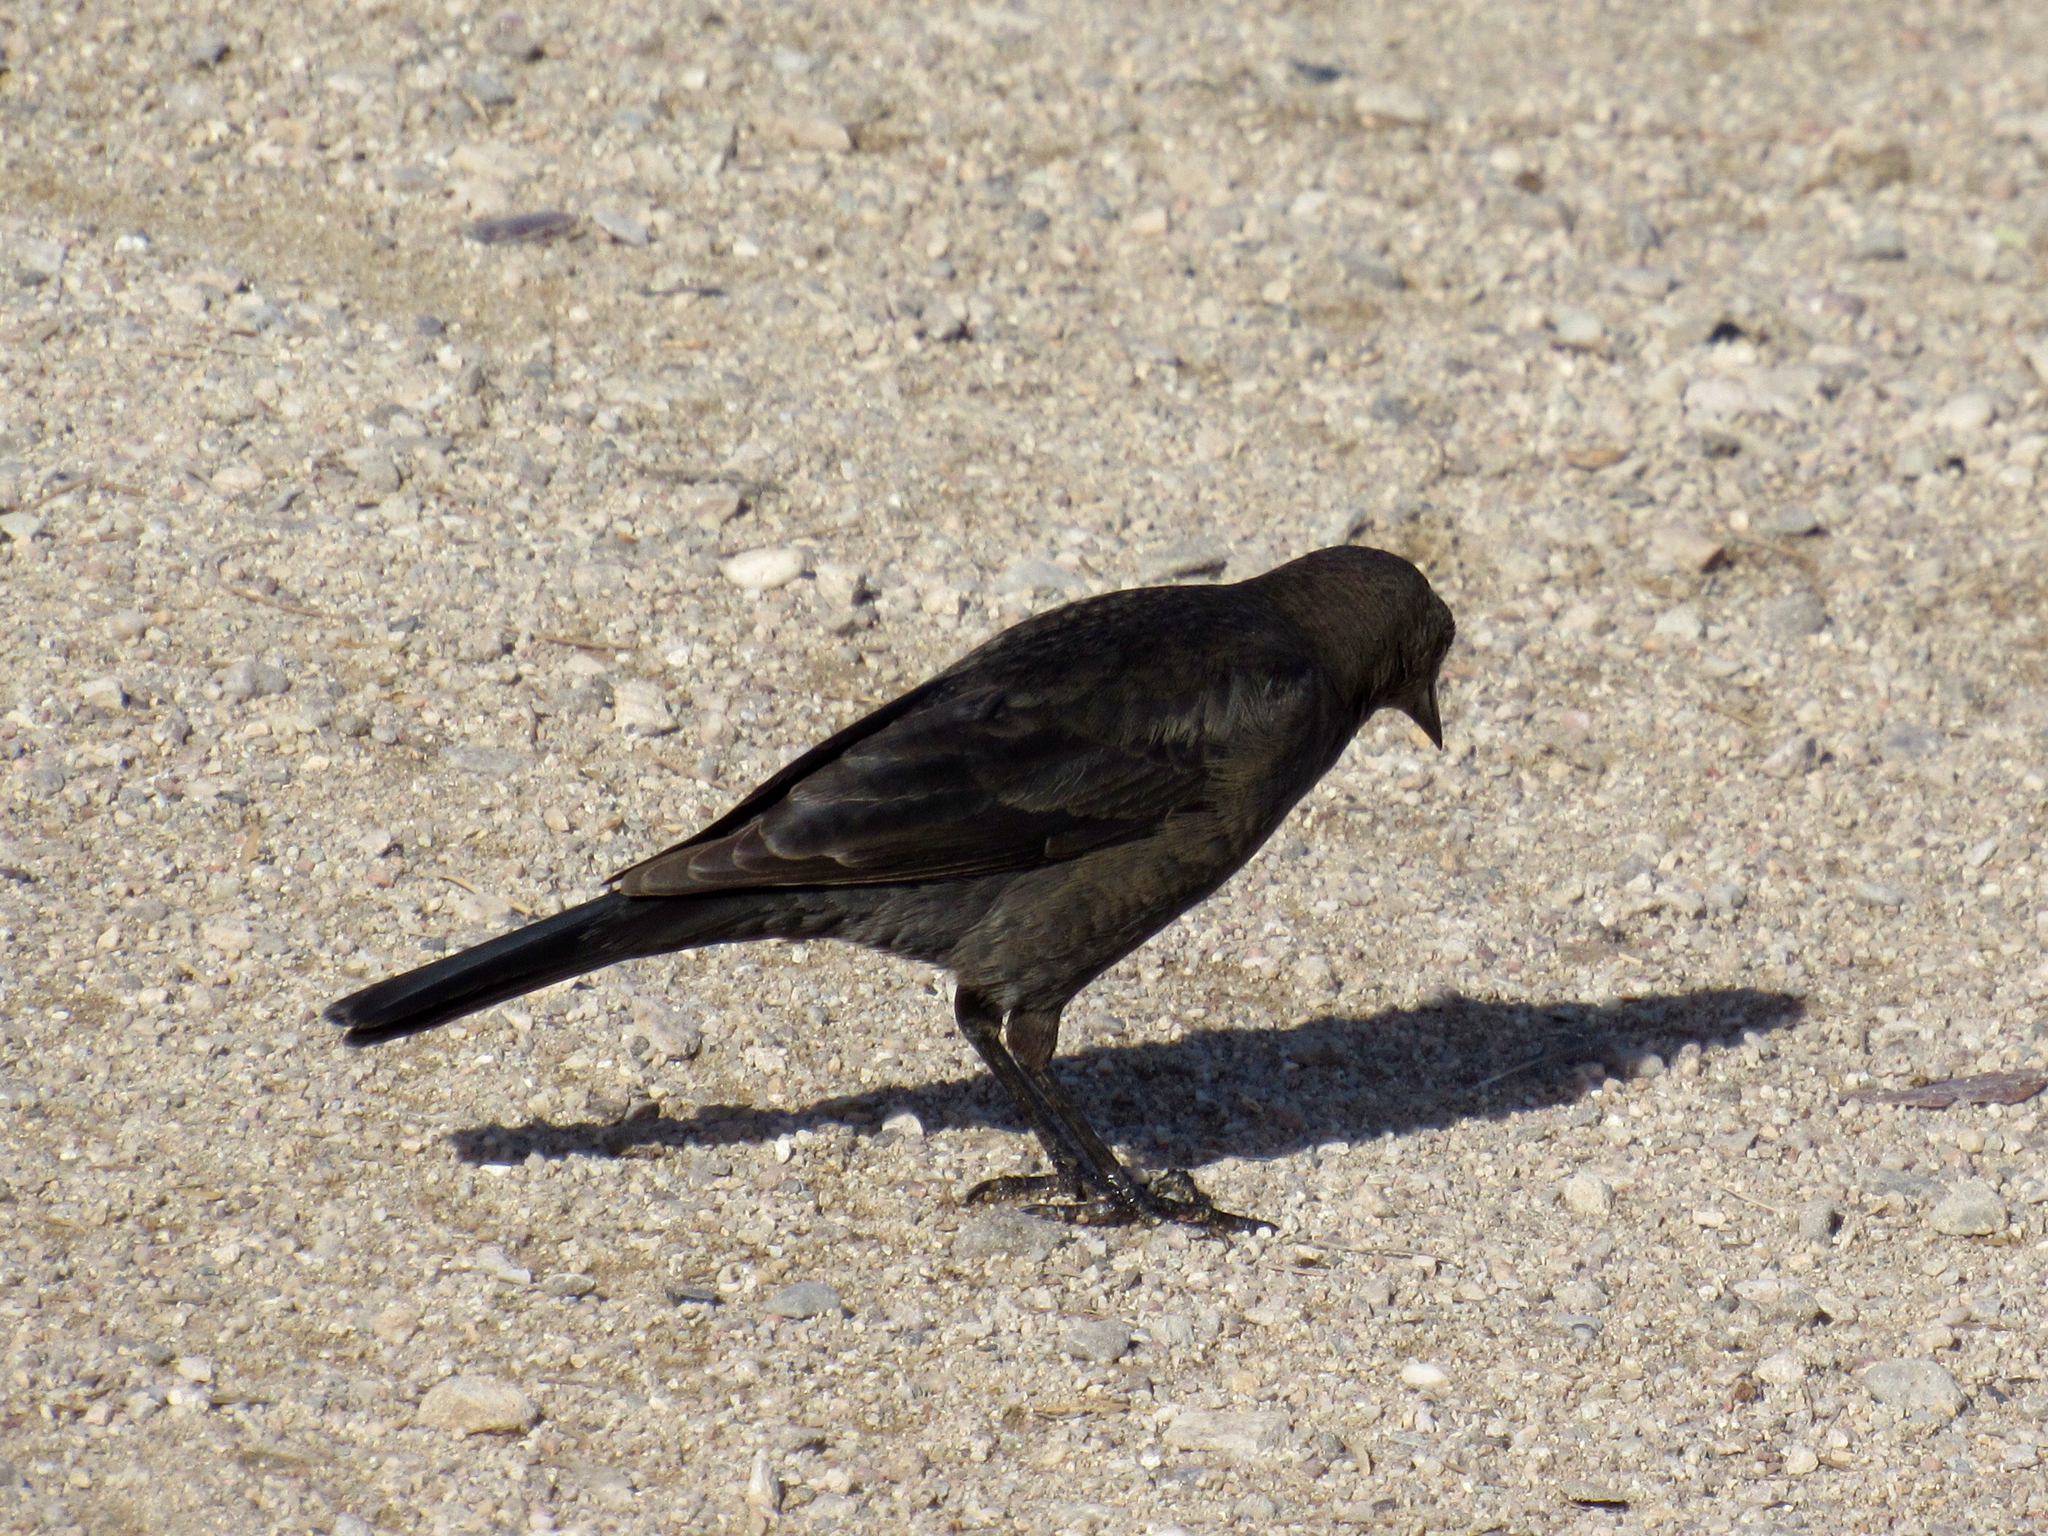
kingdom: Animalia
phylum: Chordata
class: Aves
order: Passeriformes
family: Icteridae
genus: Euphagus
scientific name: Euphagus cyanocephalus
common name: Brewer's blackbird
